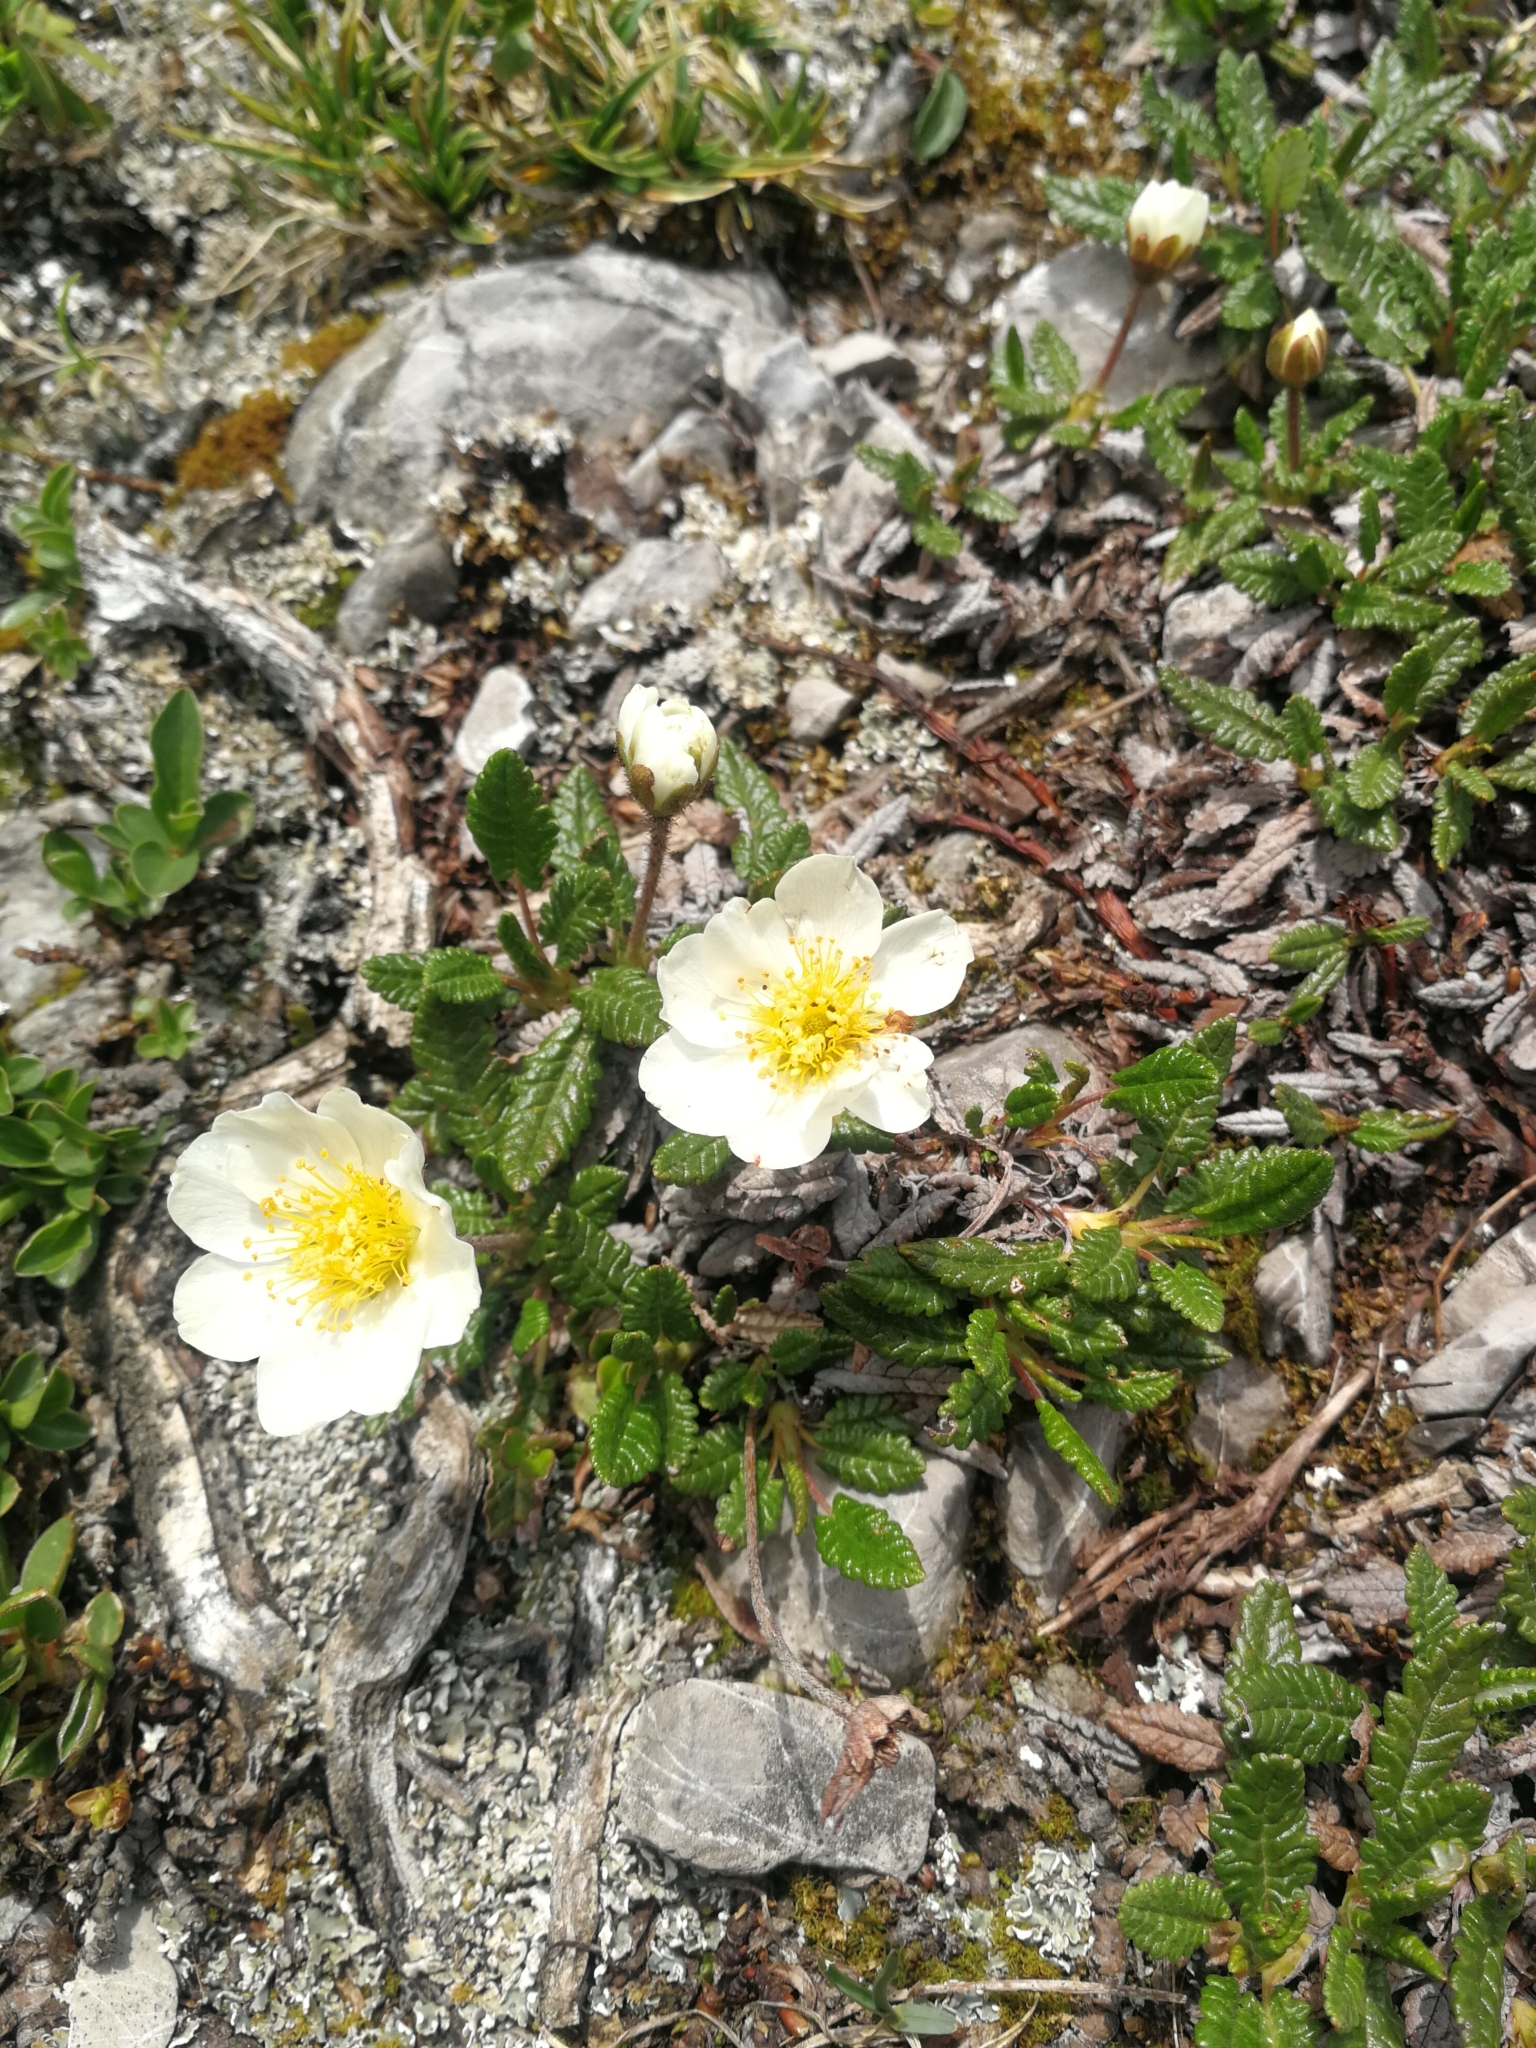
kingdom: Plantae
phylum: Tracheophyta
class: Magnoliopsida
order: Rosales
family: Rosaceae
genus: Dryas
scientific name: Dryas octopetala
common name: Eight-petal mountain-avens
